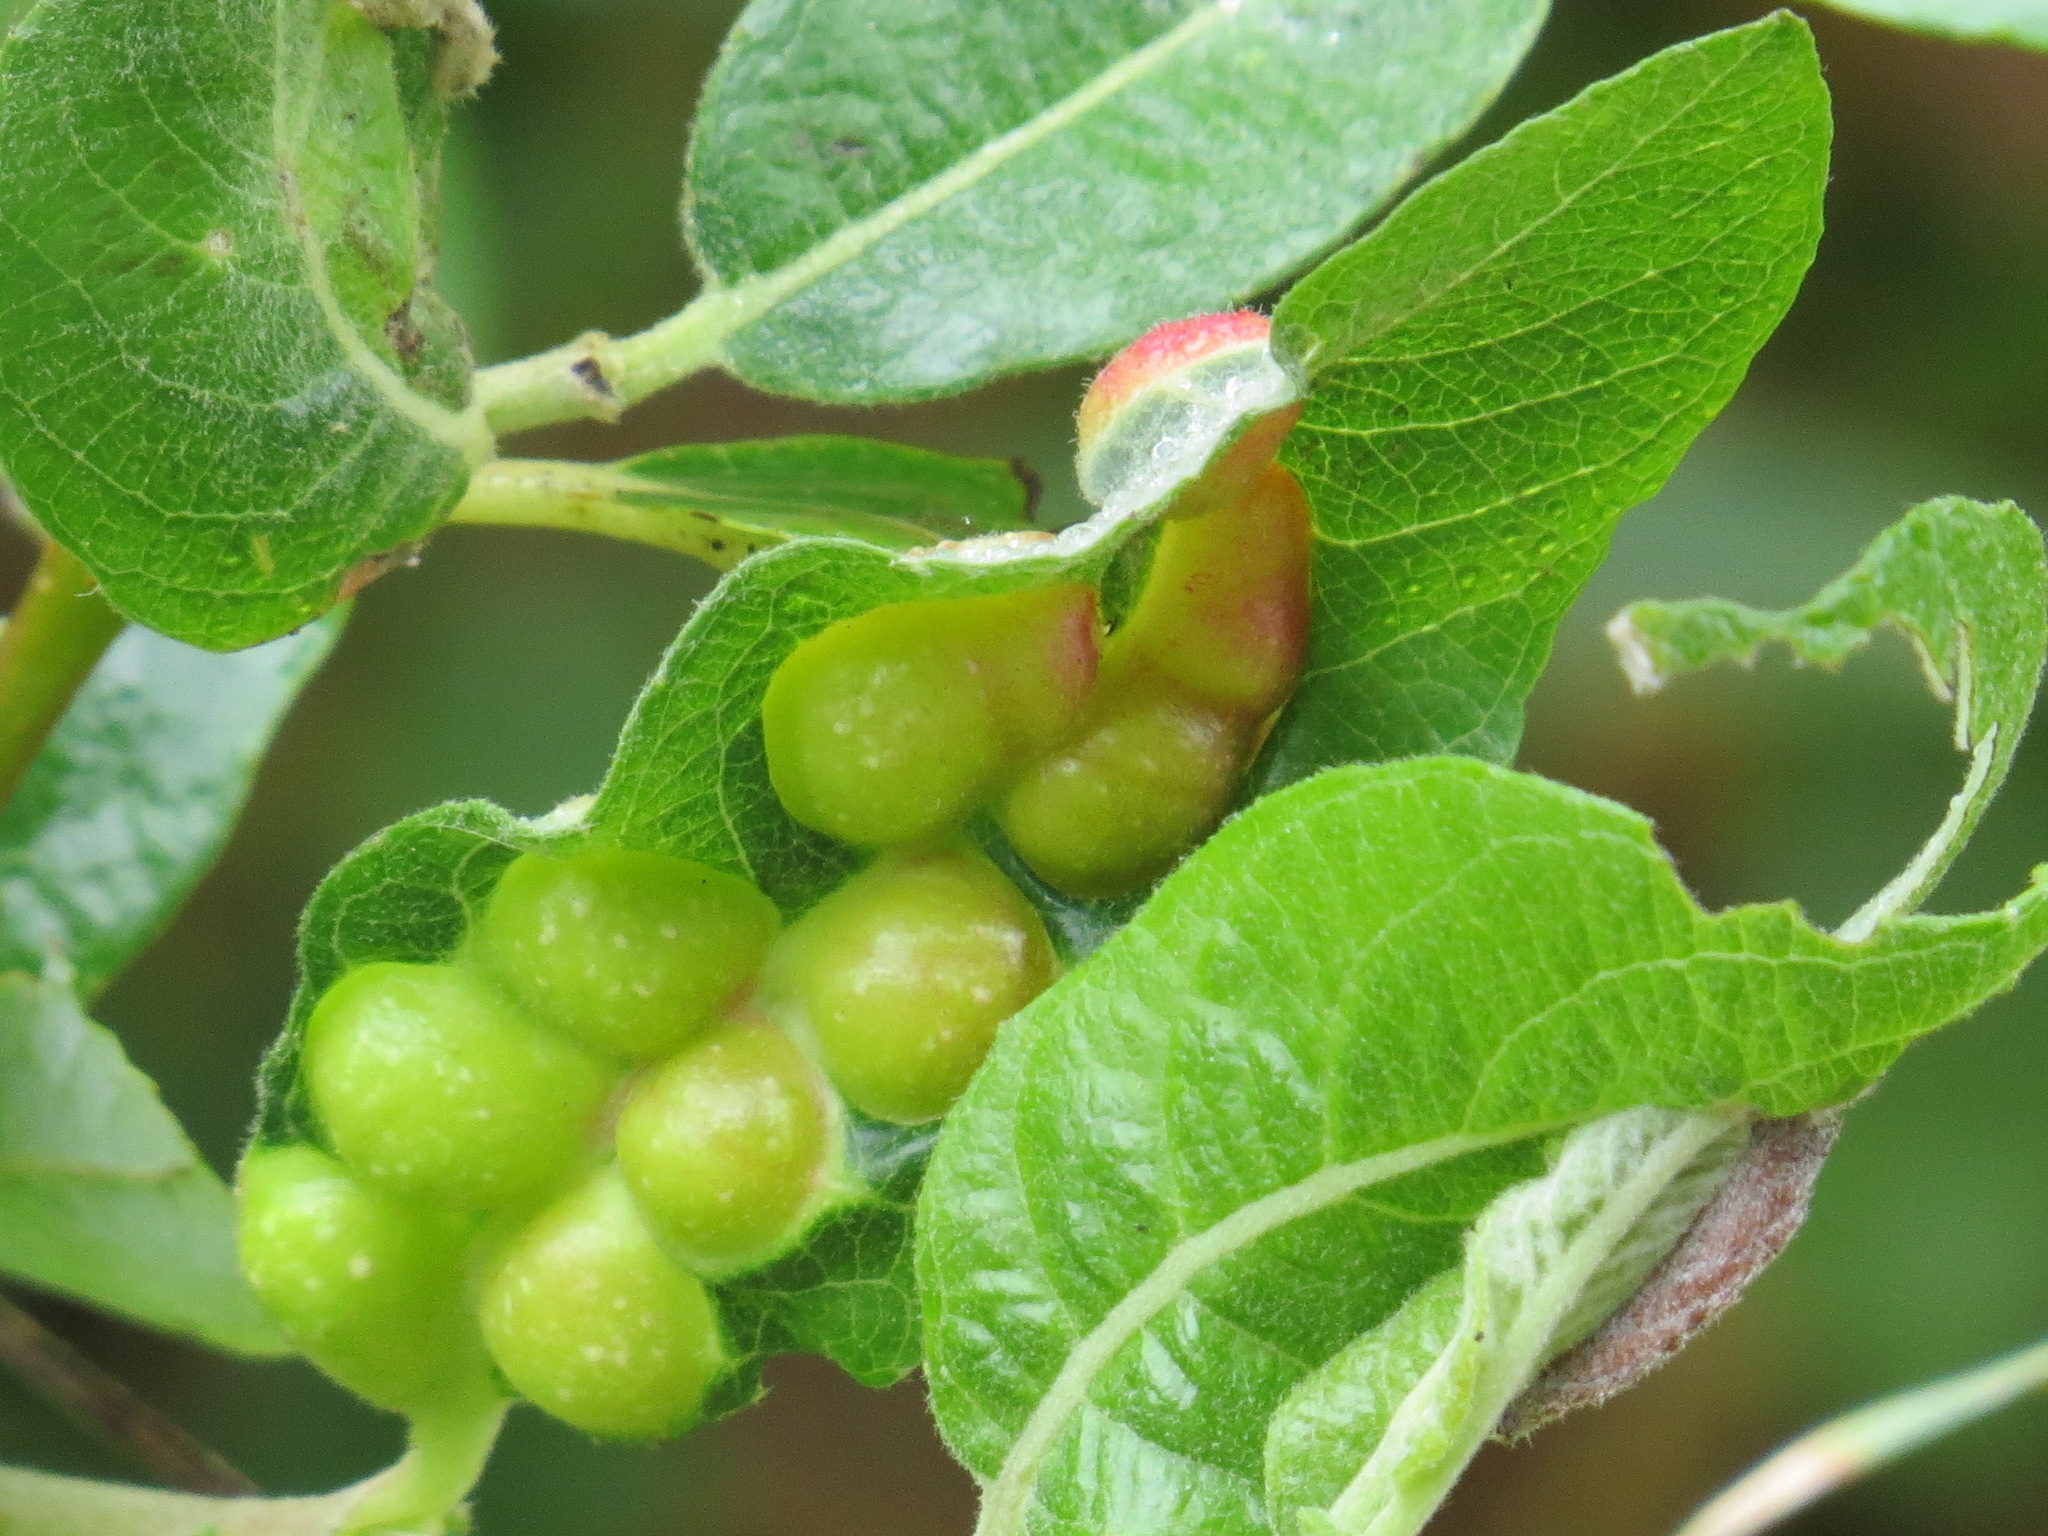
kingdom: Animalia
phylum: Arthropoda
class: Insecta
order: Hymenoptera
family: Tenthredinidae
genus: Euura
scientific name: Euura
